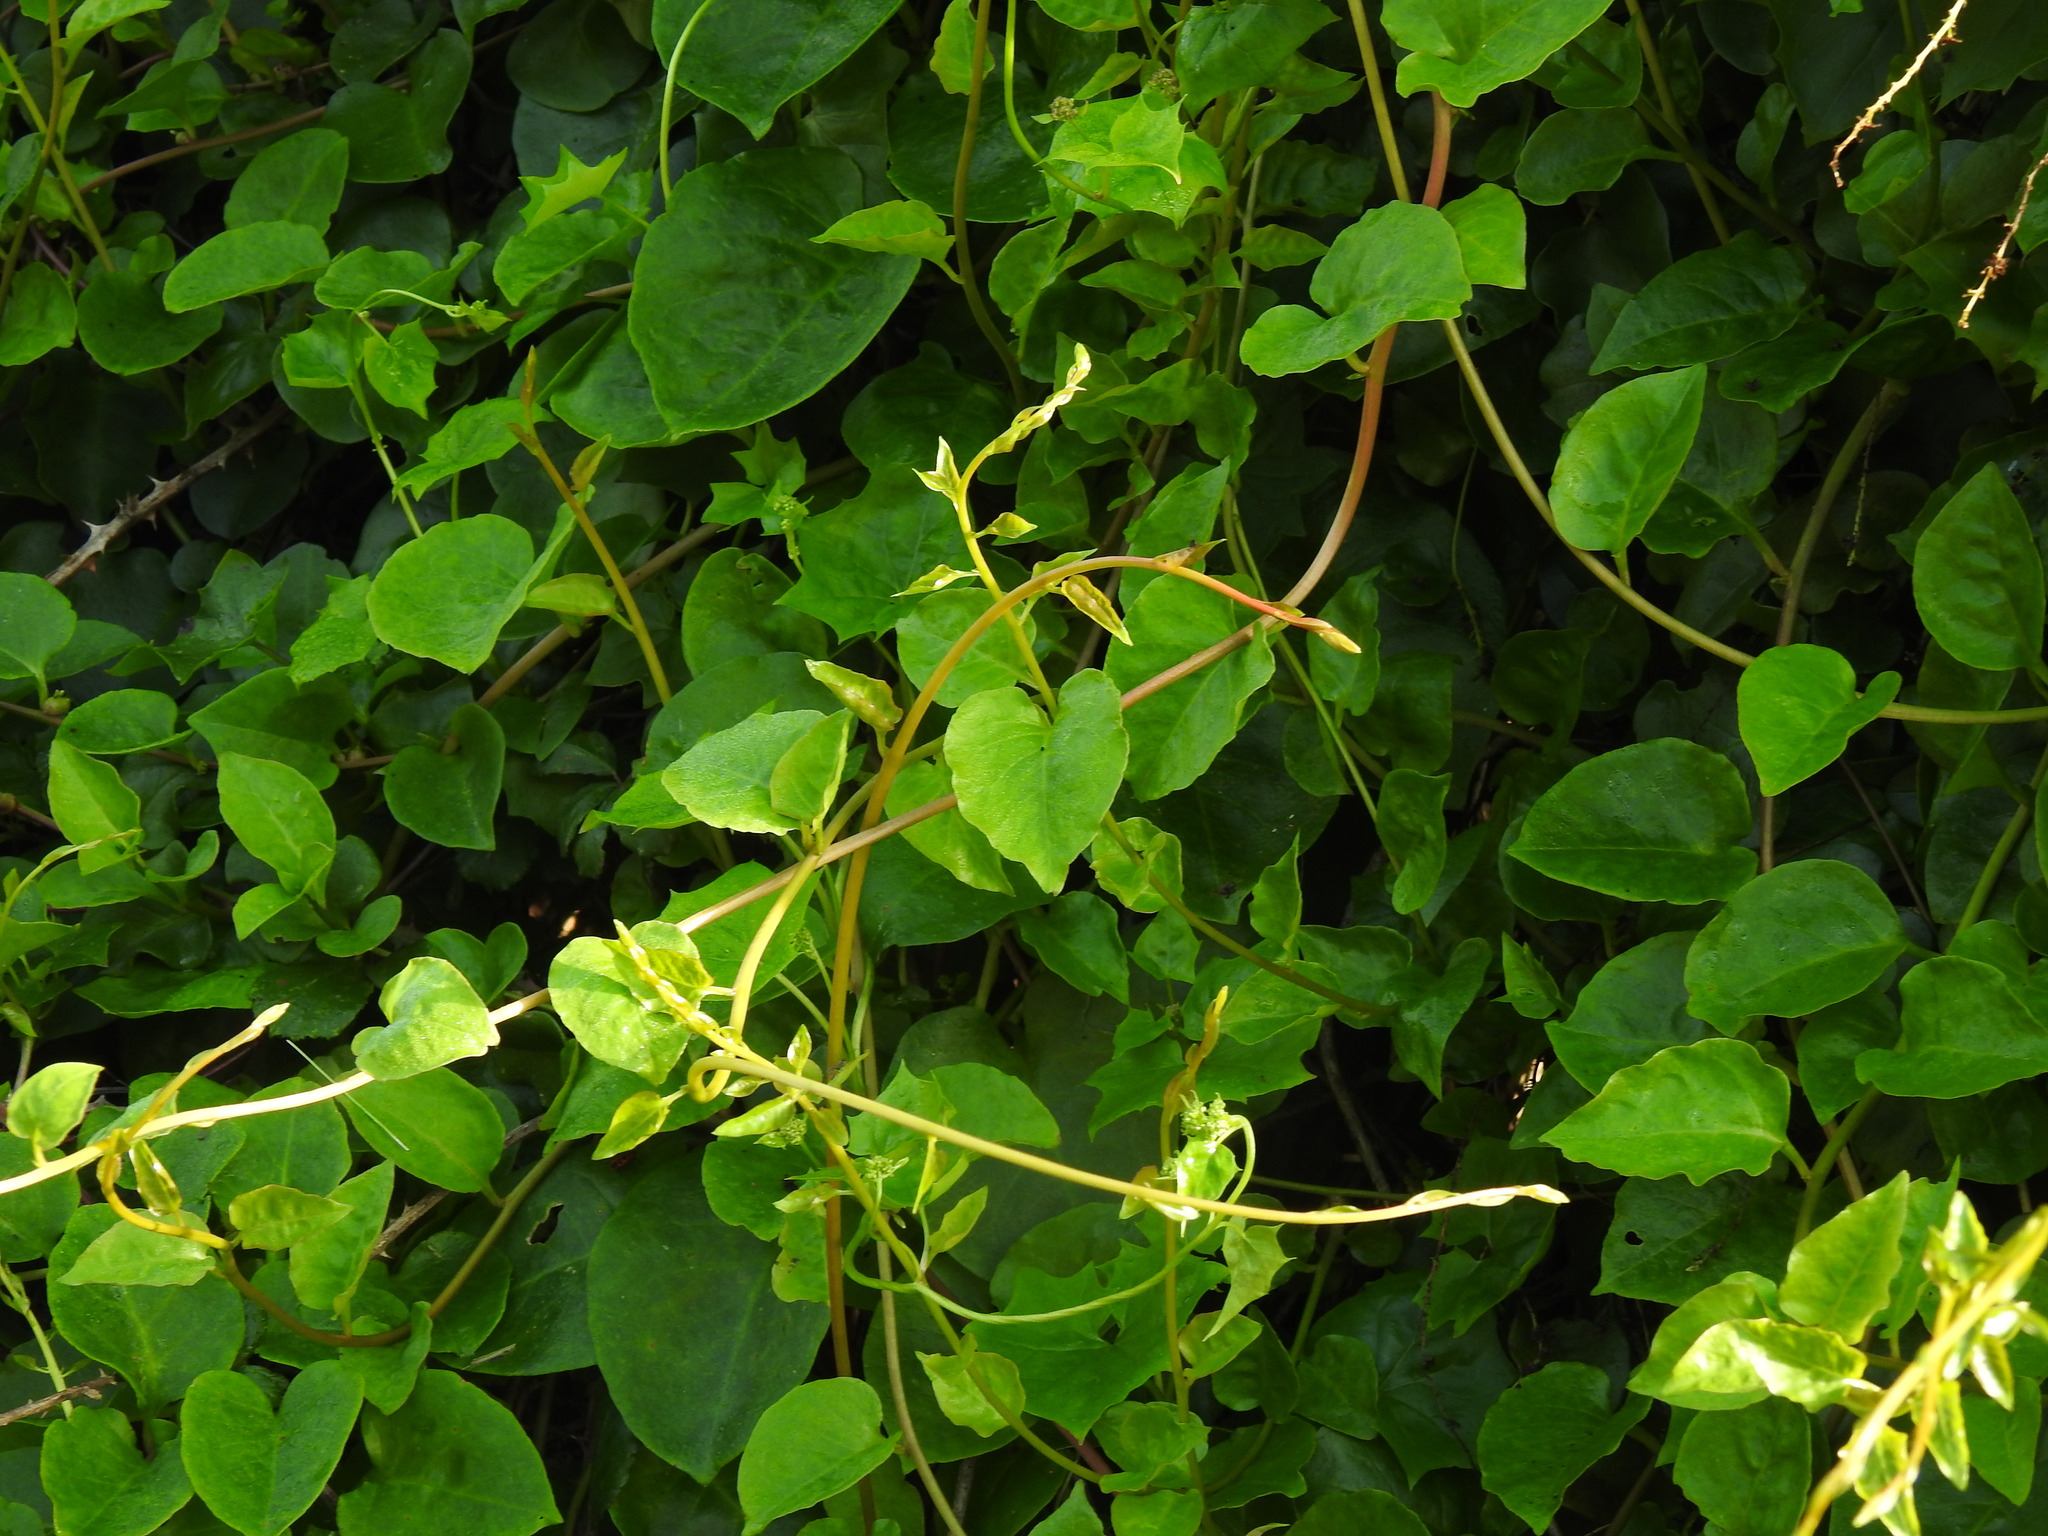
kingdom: Plantae
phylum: Tracheophyta
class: Magnoliopsida
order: Caryophyllales
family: Basellaceae
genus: Anredera
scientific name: Anredera cordifolia
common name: Heartleaf madeiravine
